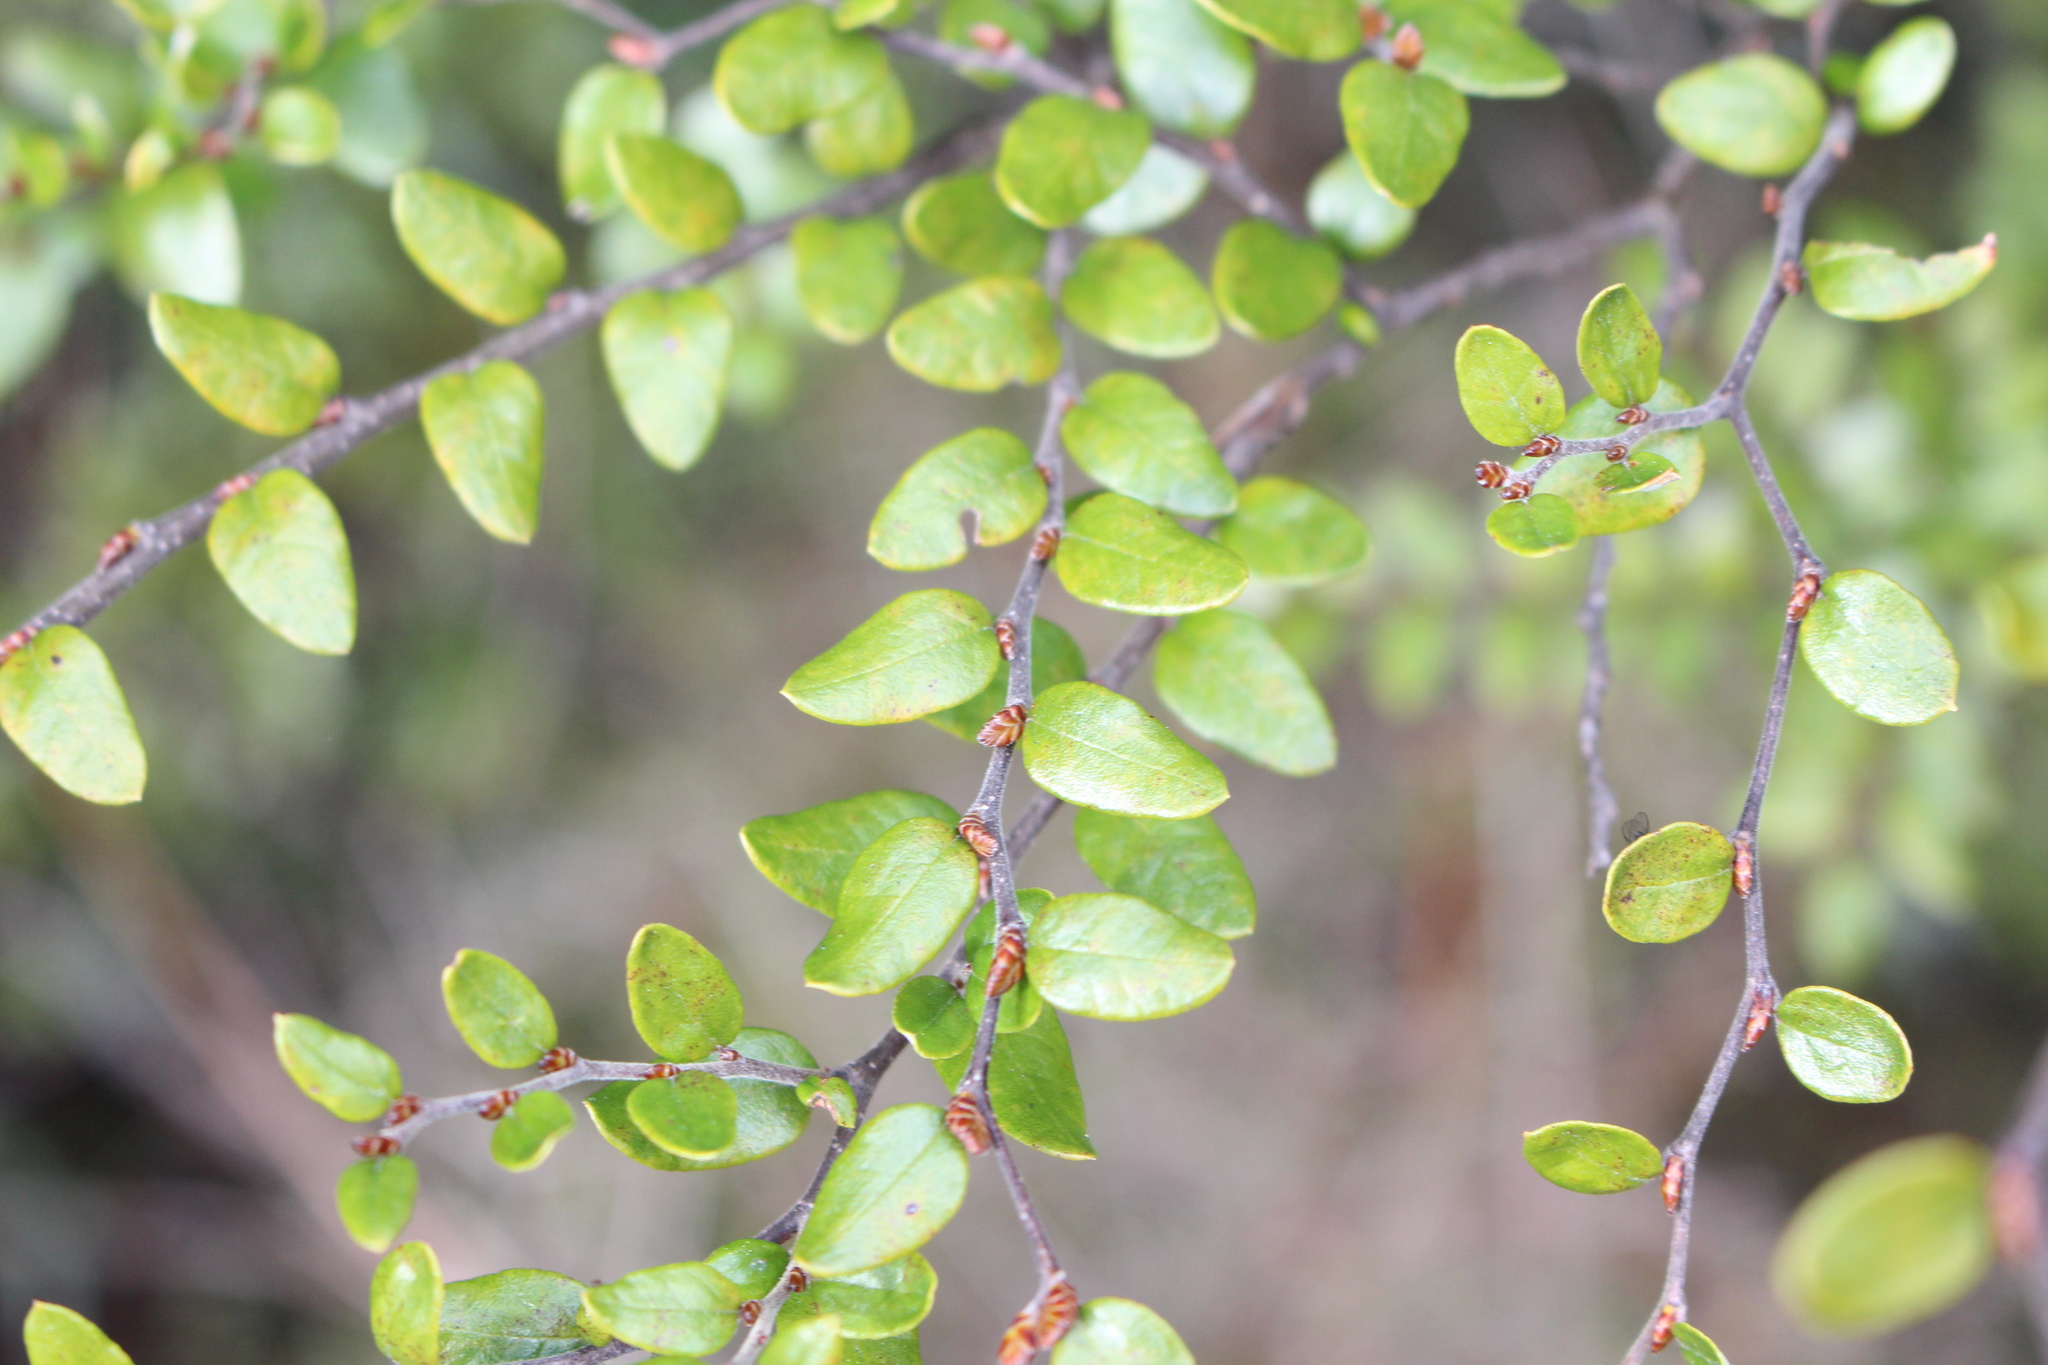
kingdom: Plantae
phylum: Tracheophyta
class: Magnoliopsida
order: Fagales
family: Nothofagaceae
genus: Nothofagus
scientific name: Nothofagus cliffortioides
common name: Mountain beech
